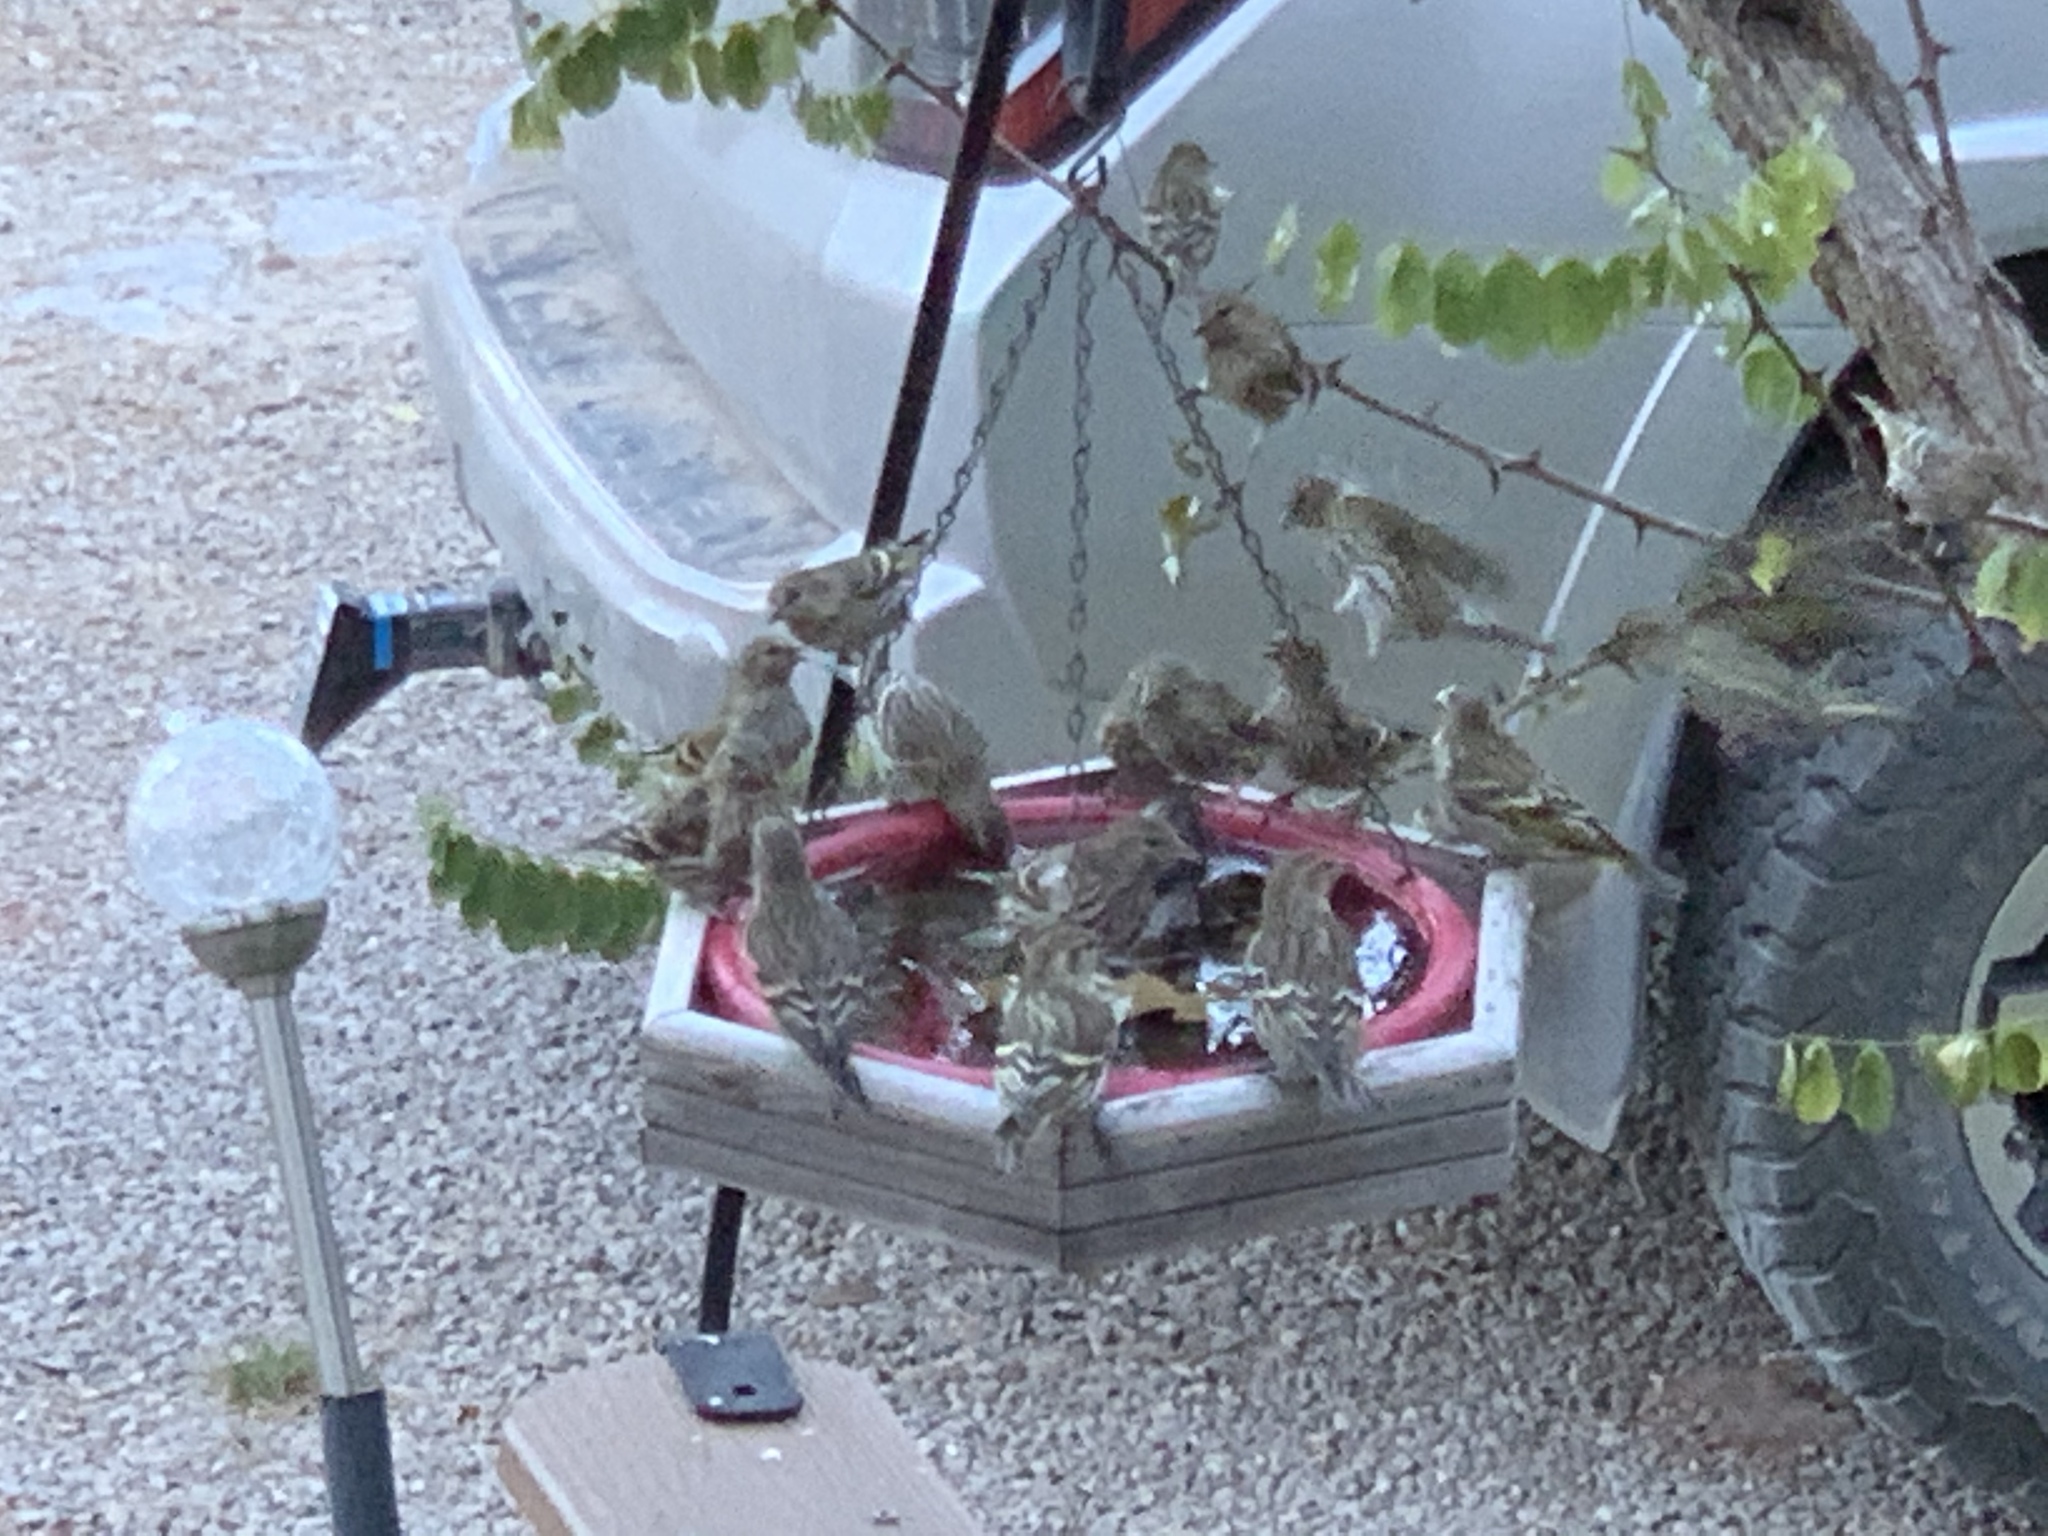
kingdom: Animalia
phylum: Chordata
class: Aves
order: Passeriformes
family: Fringillidae
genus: Spinus
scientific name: Spinus pinus
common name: Pine siskin
